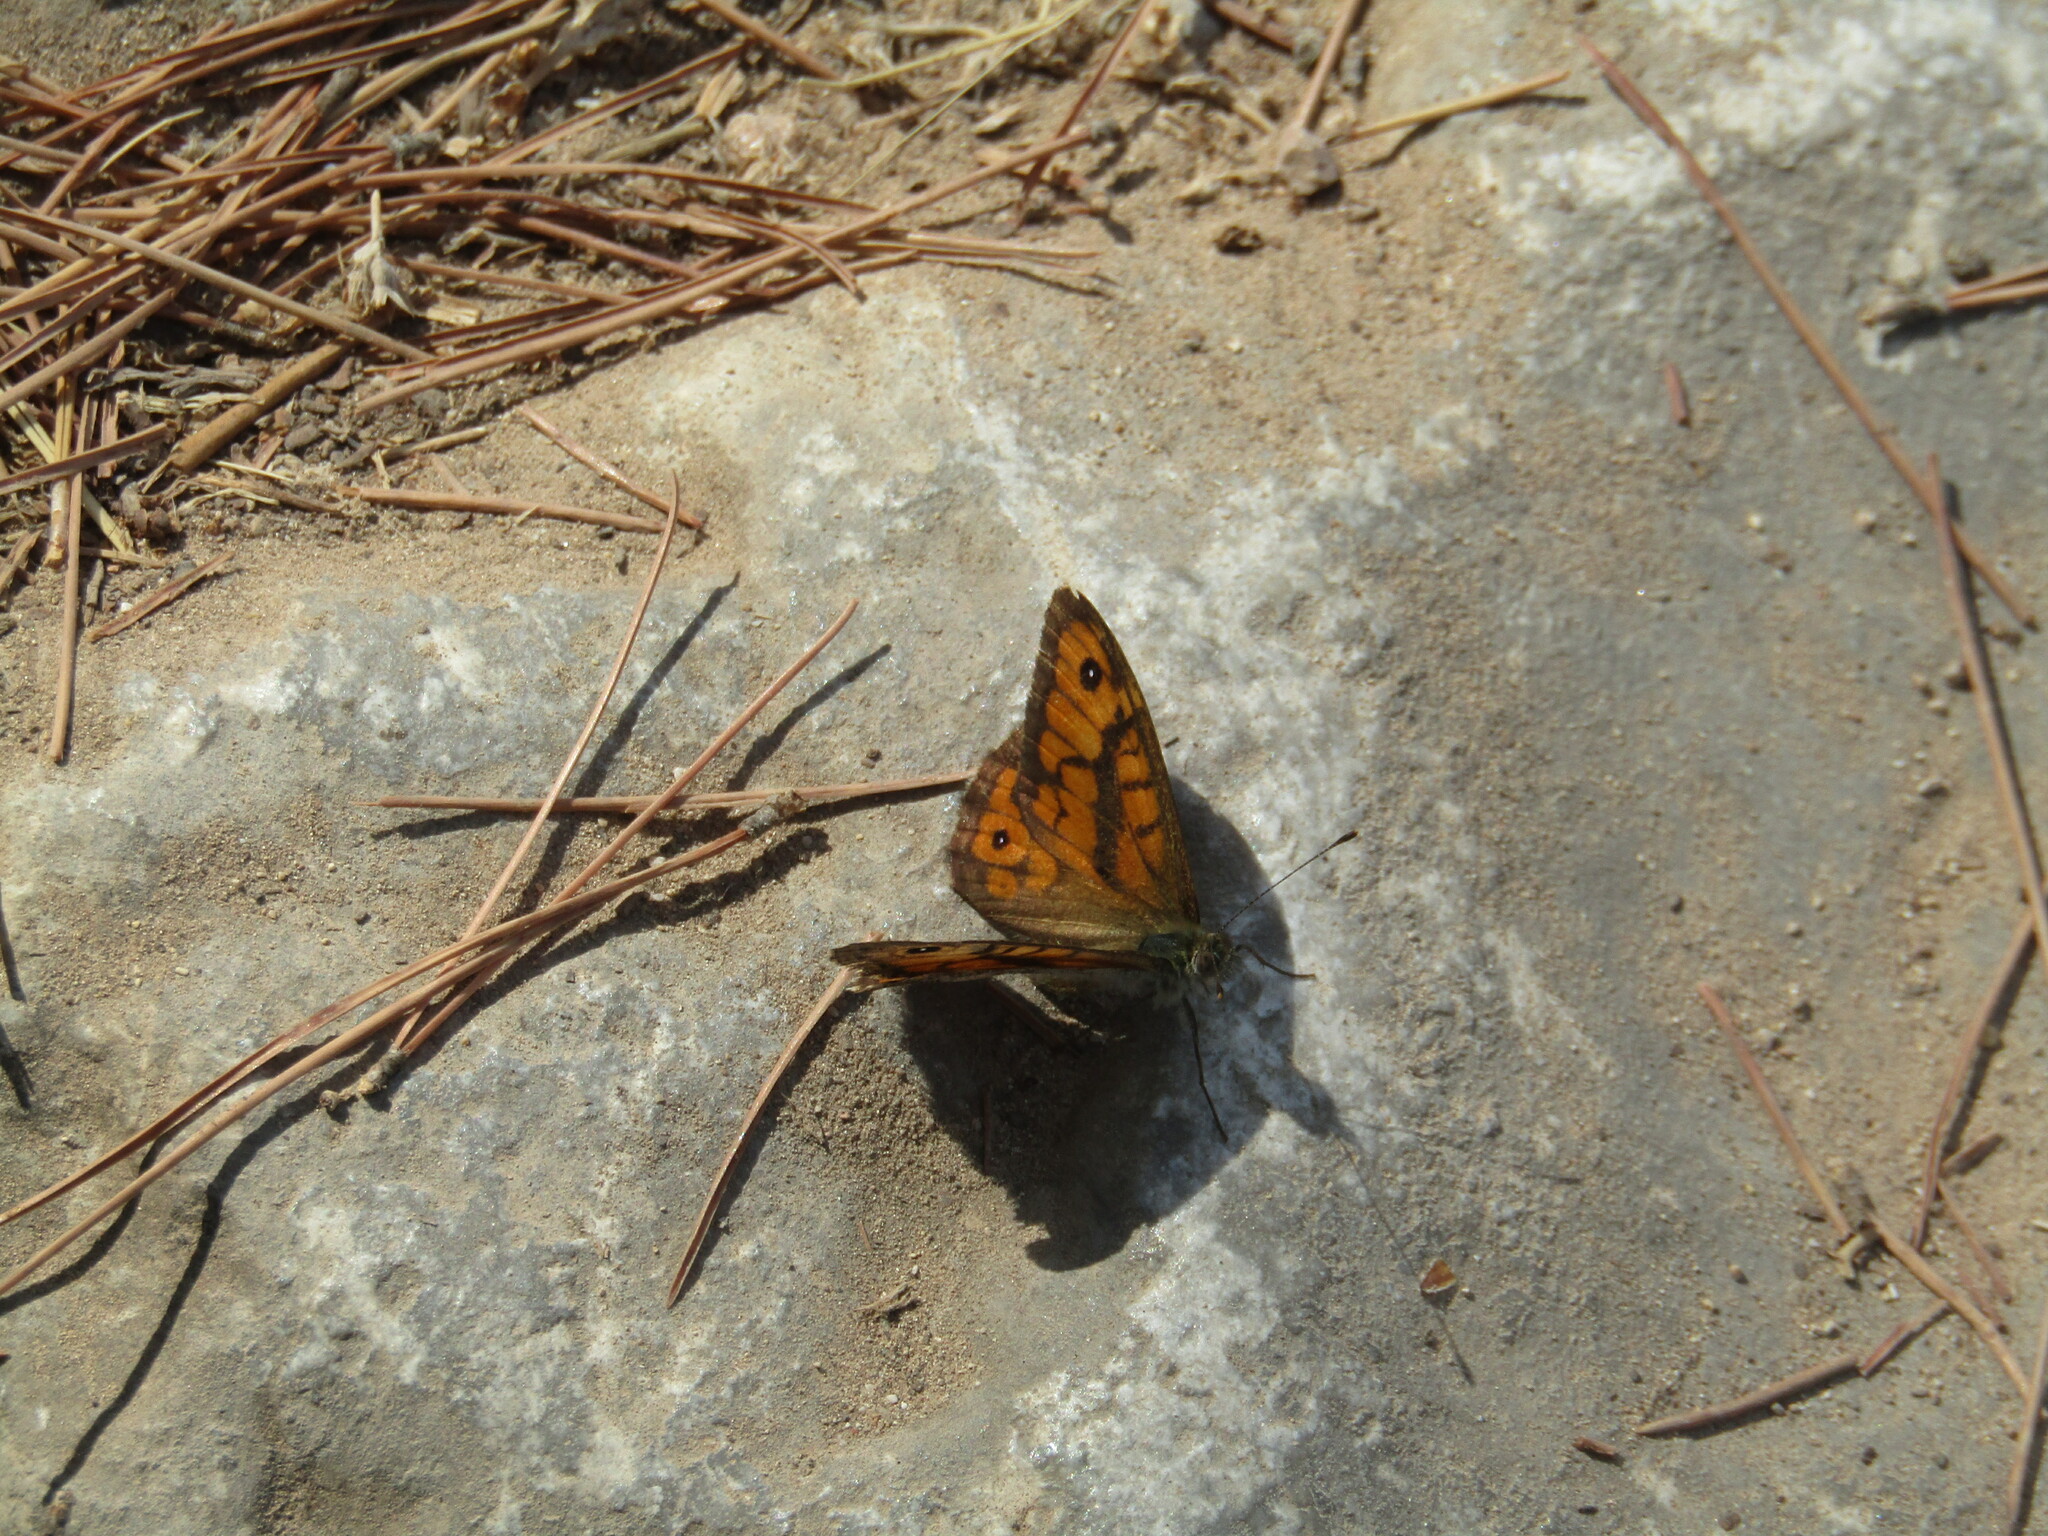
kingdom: Animalia
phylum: Arthropoda
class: Insecta
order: Lepidoptera
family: Nymphalidae
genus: Pararge
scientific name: Pararge Lasiommata megera
